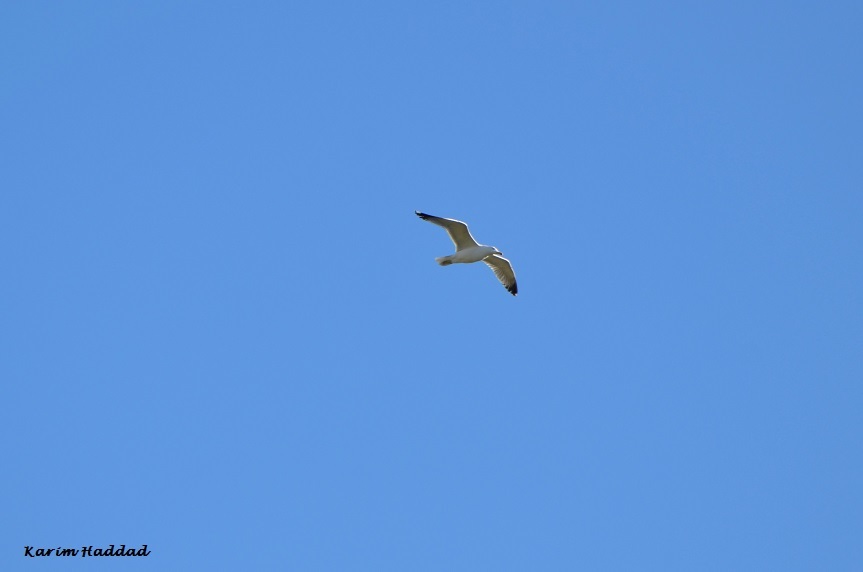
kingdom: Animalia
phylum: Chordata
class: Aves
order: Charadriiformes
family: Laridae
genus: Larus
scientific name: Larus michahellis
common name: Yellow-legged gull
